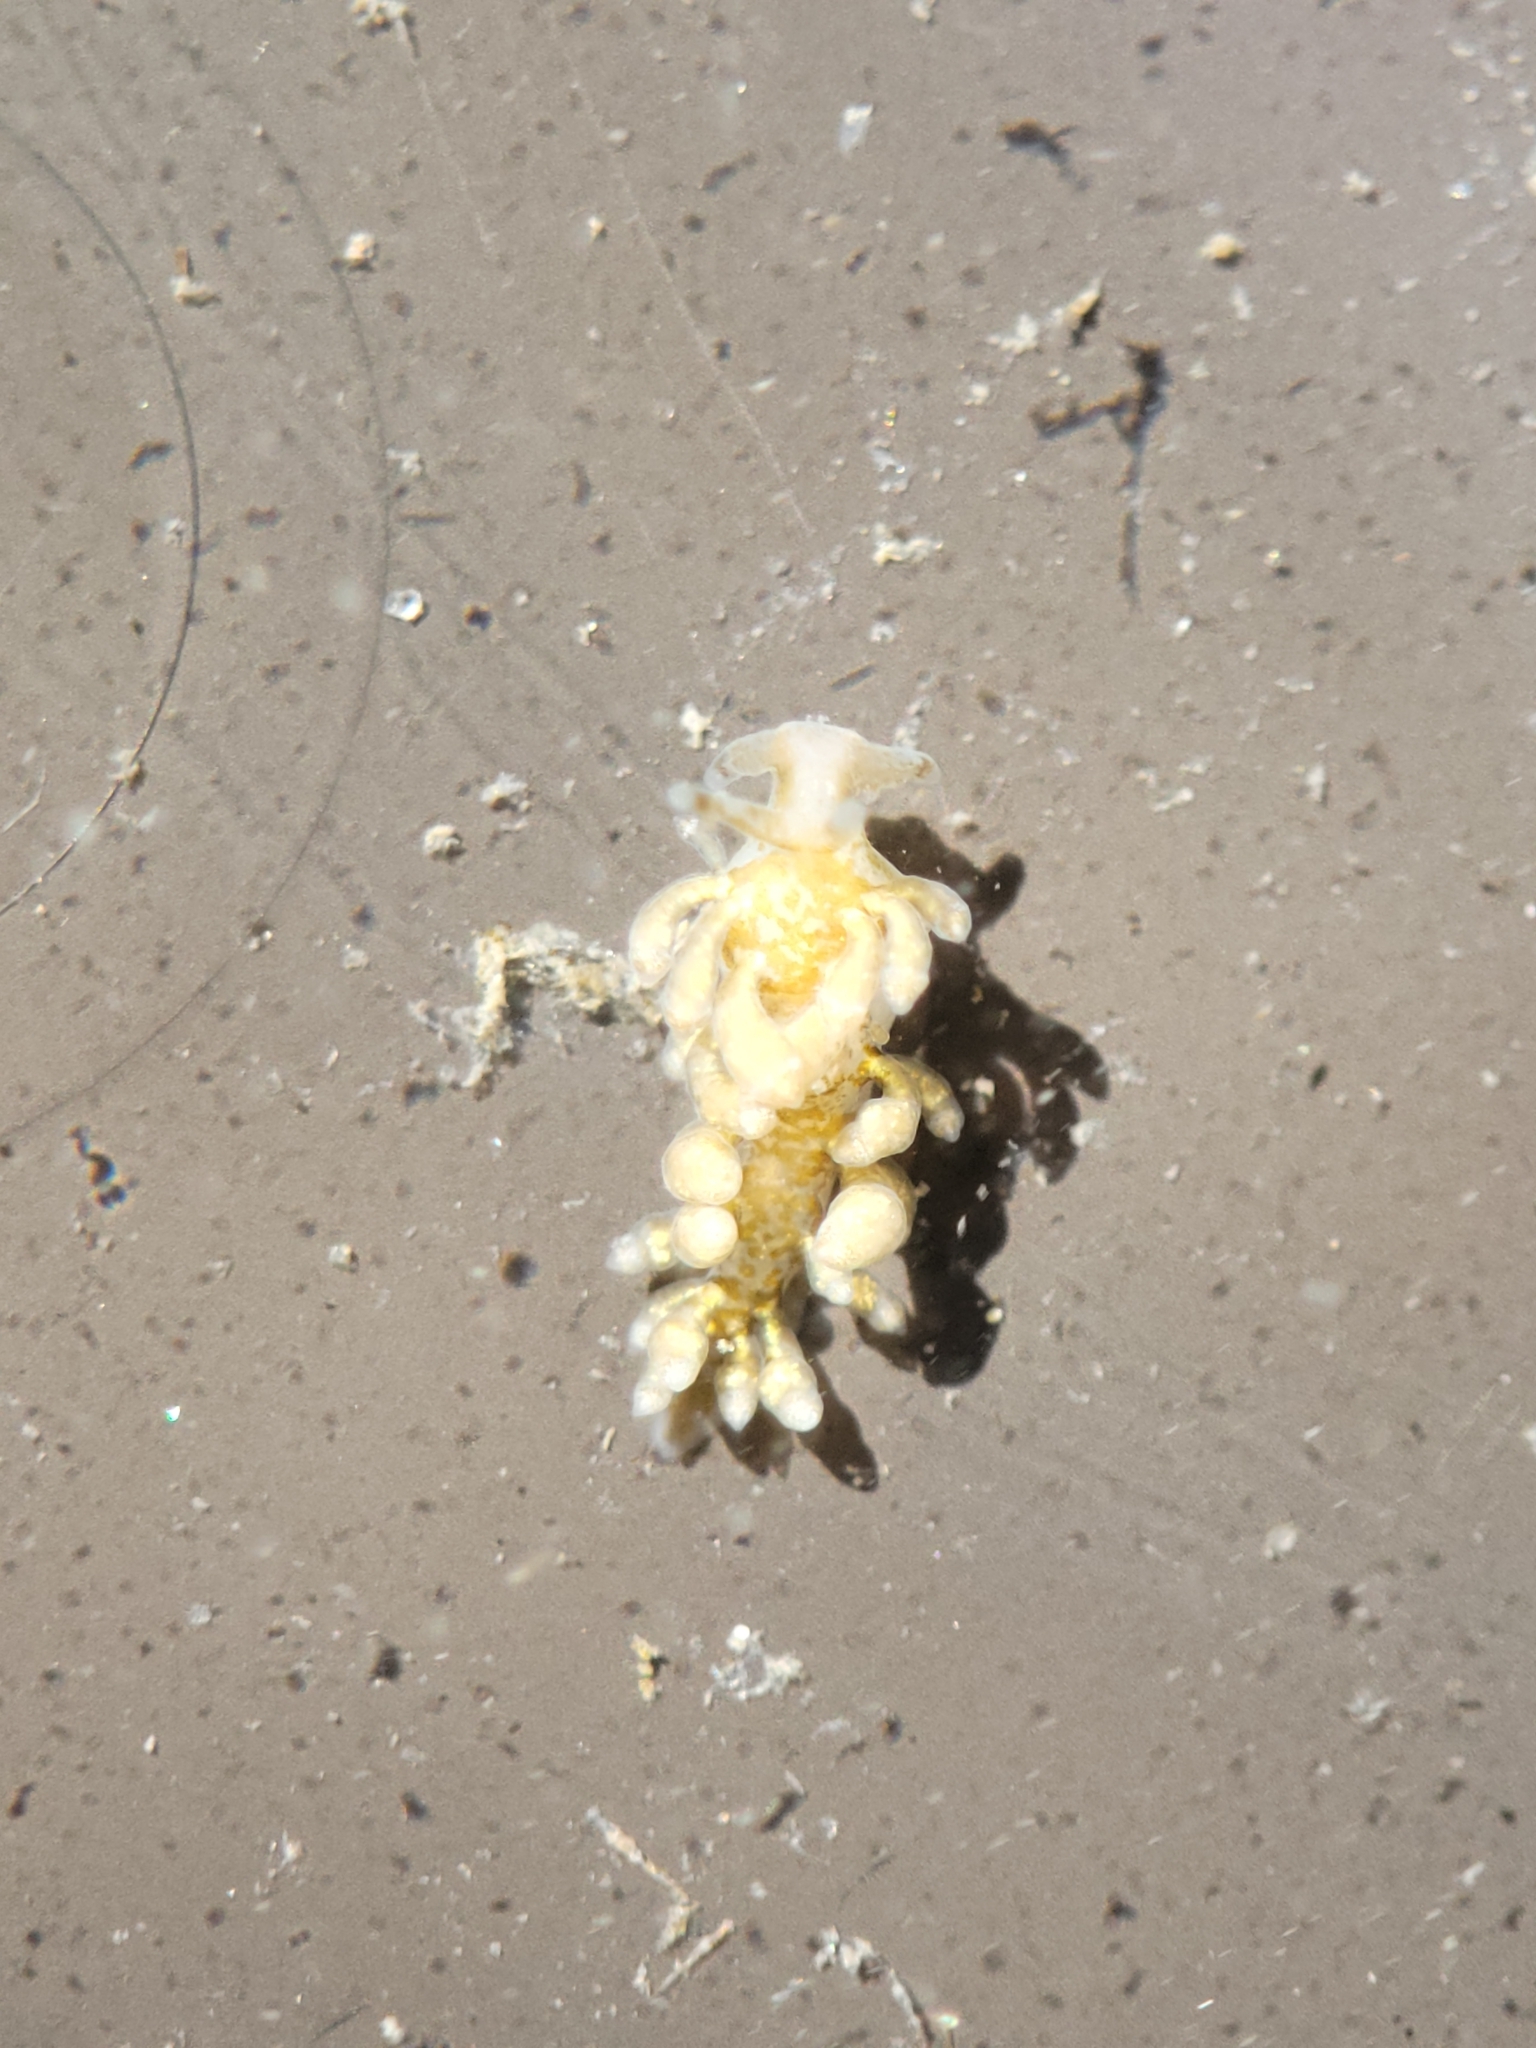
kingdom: Animalia
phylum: Mollusca
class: Gastropoda
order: Nudibranchia
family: Eubranchidae
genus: Eubranchus
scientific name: Eubranchus rustyus
